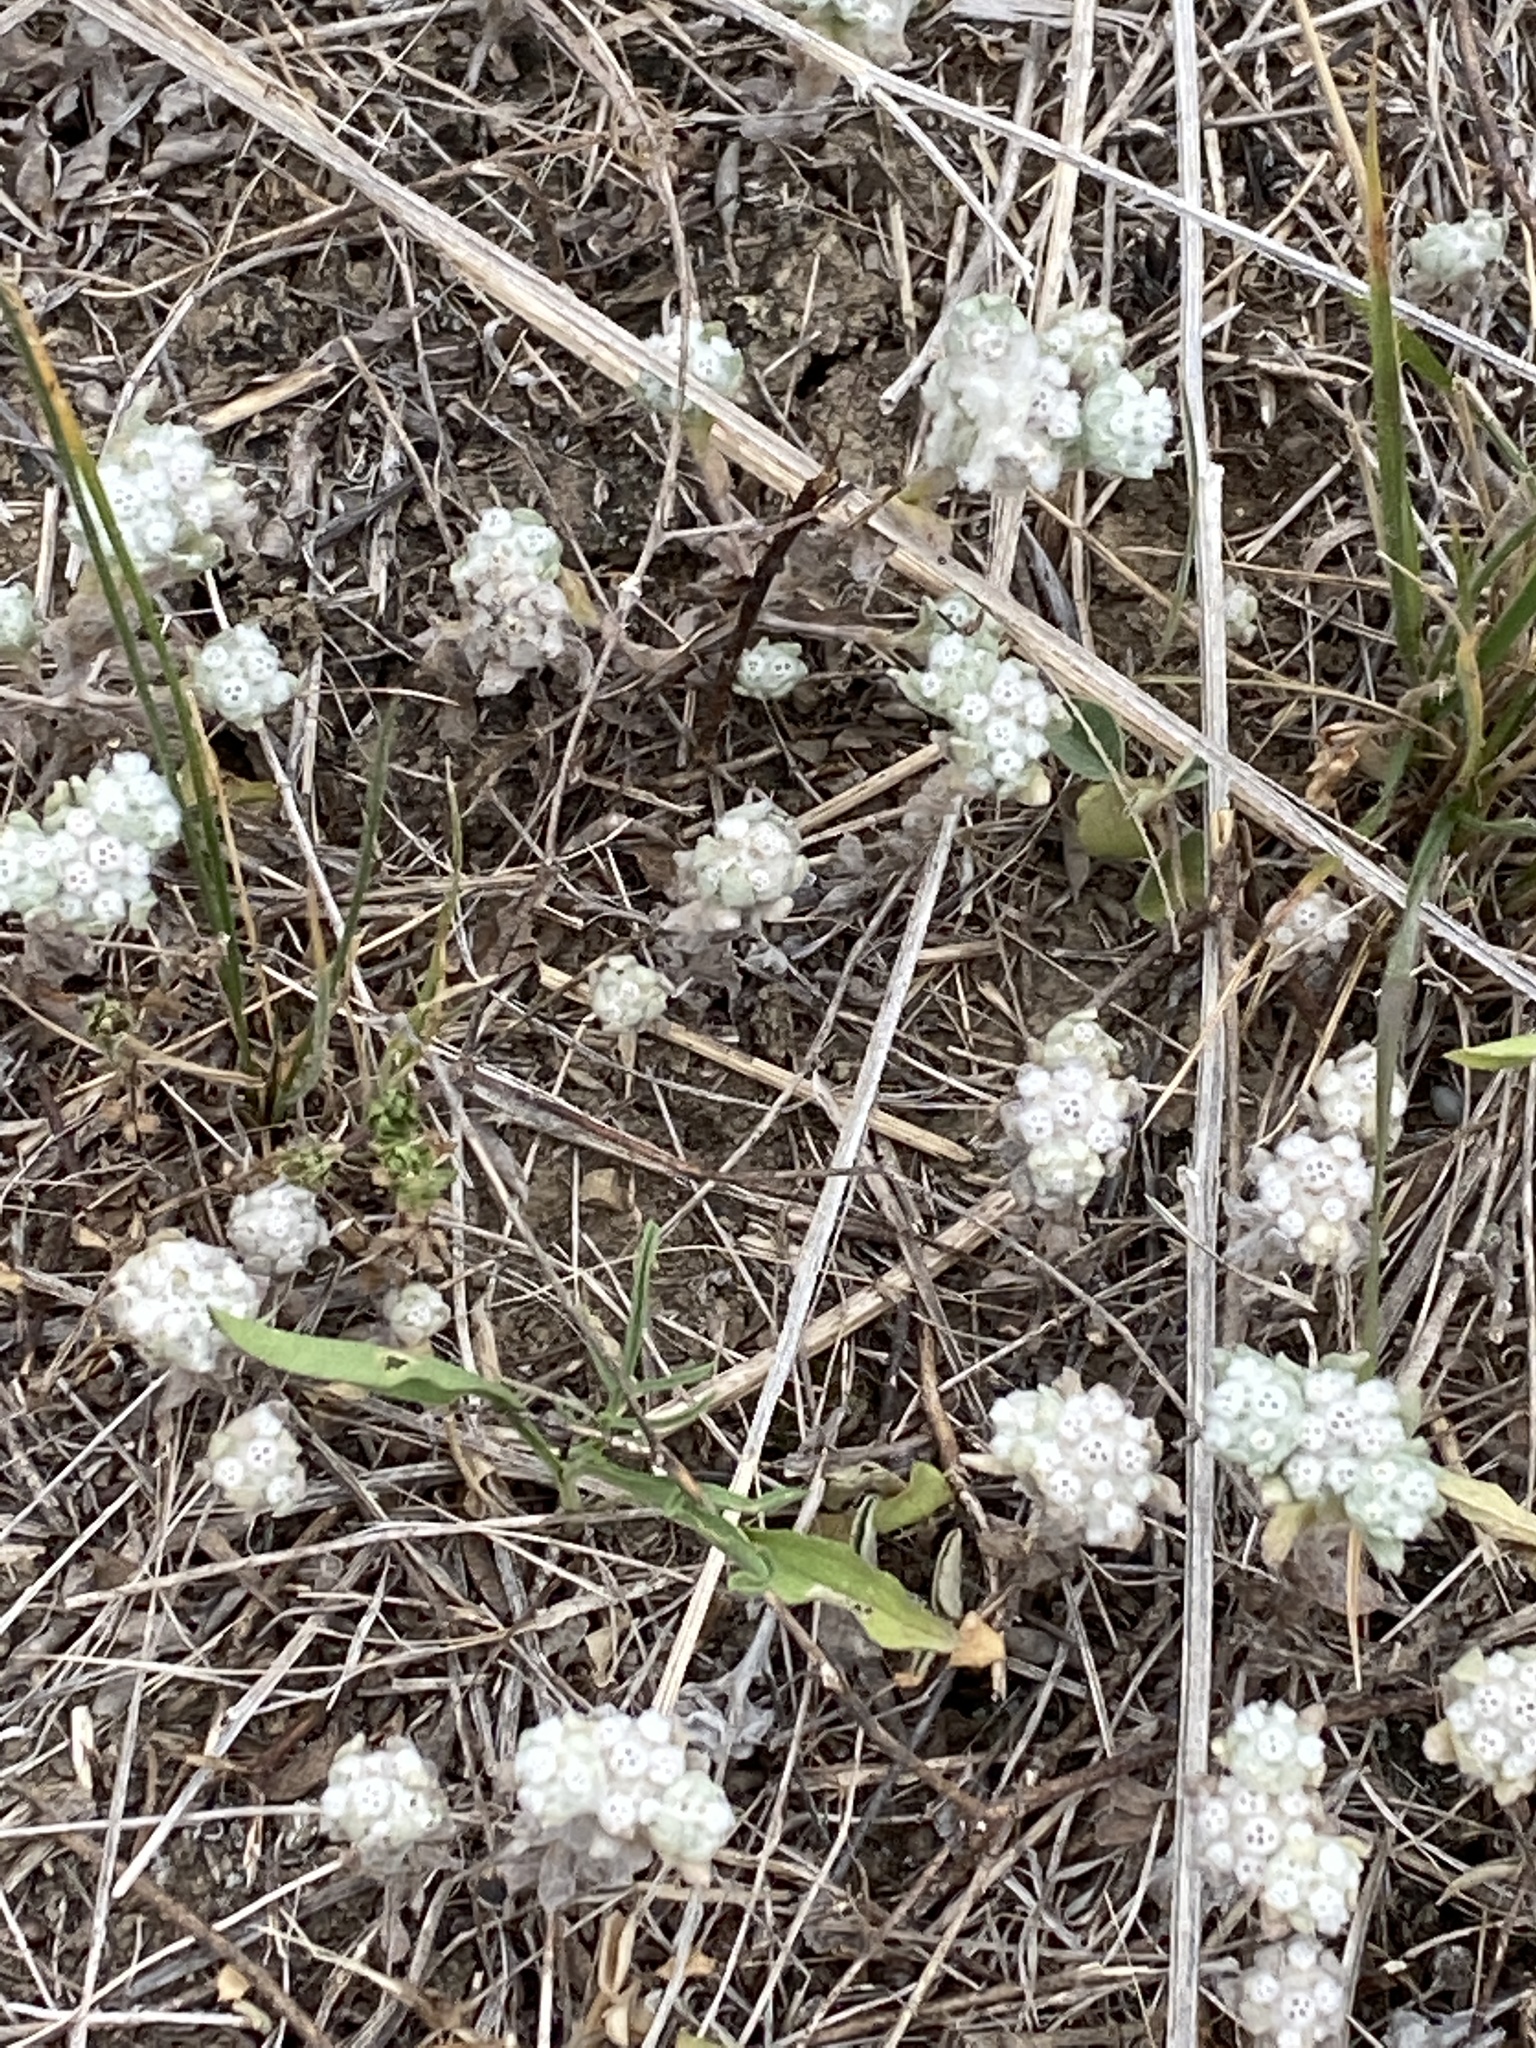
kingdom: Plantae
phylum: Tracheophyta
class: Magnoliopsida
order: Asterales
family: Asteraceae
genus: Diaperia
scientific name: Diaperia verna
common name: Many-stem rabbit-tobacco
